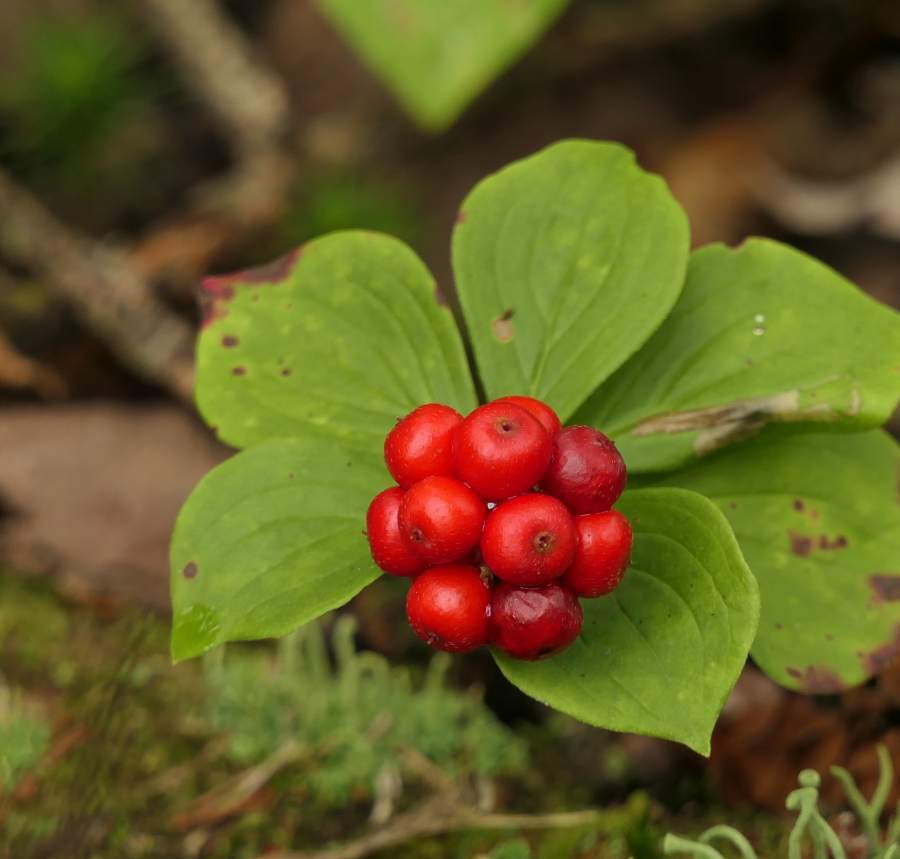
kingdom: Plantae
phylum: Tracheophyta
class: Magnoliopsida
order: Cornales
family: Cornaceae
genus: Cornus
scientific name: Cornus canadensis
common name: Creeping dogwood
